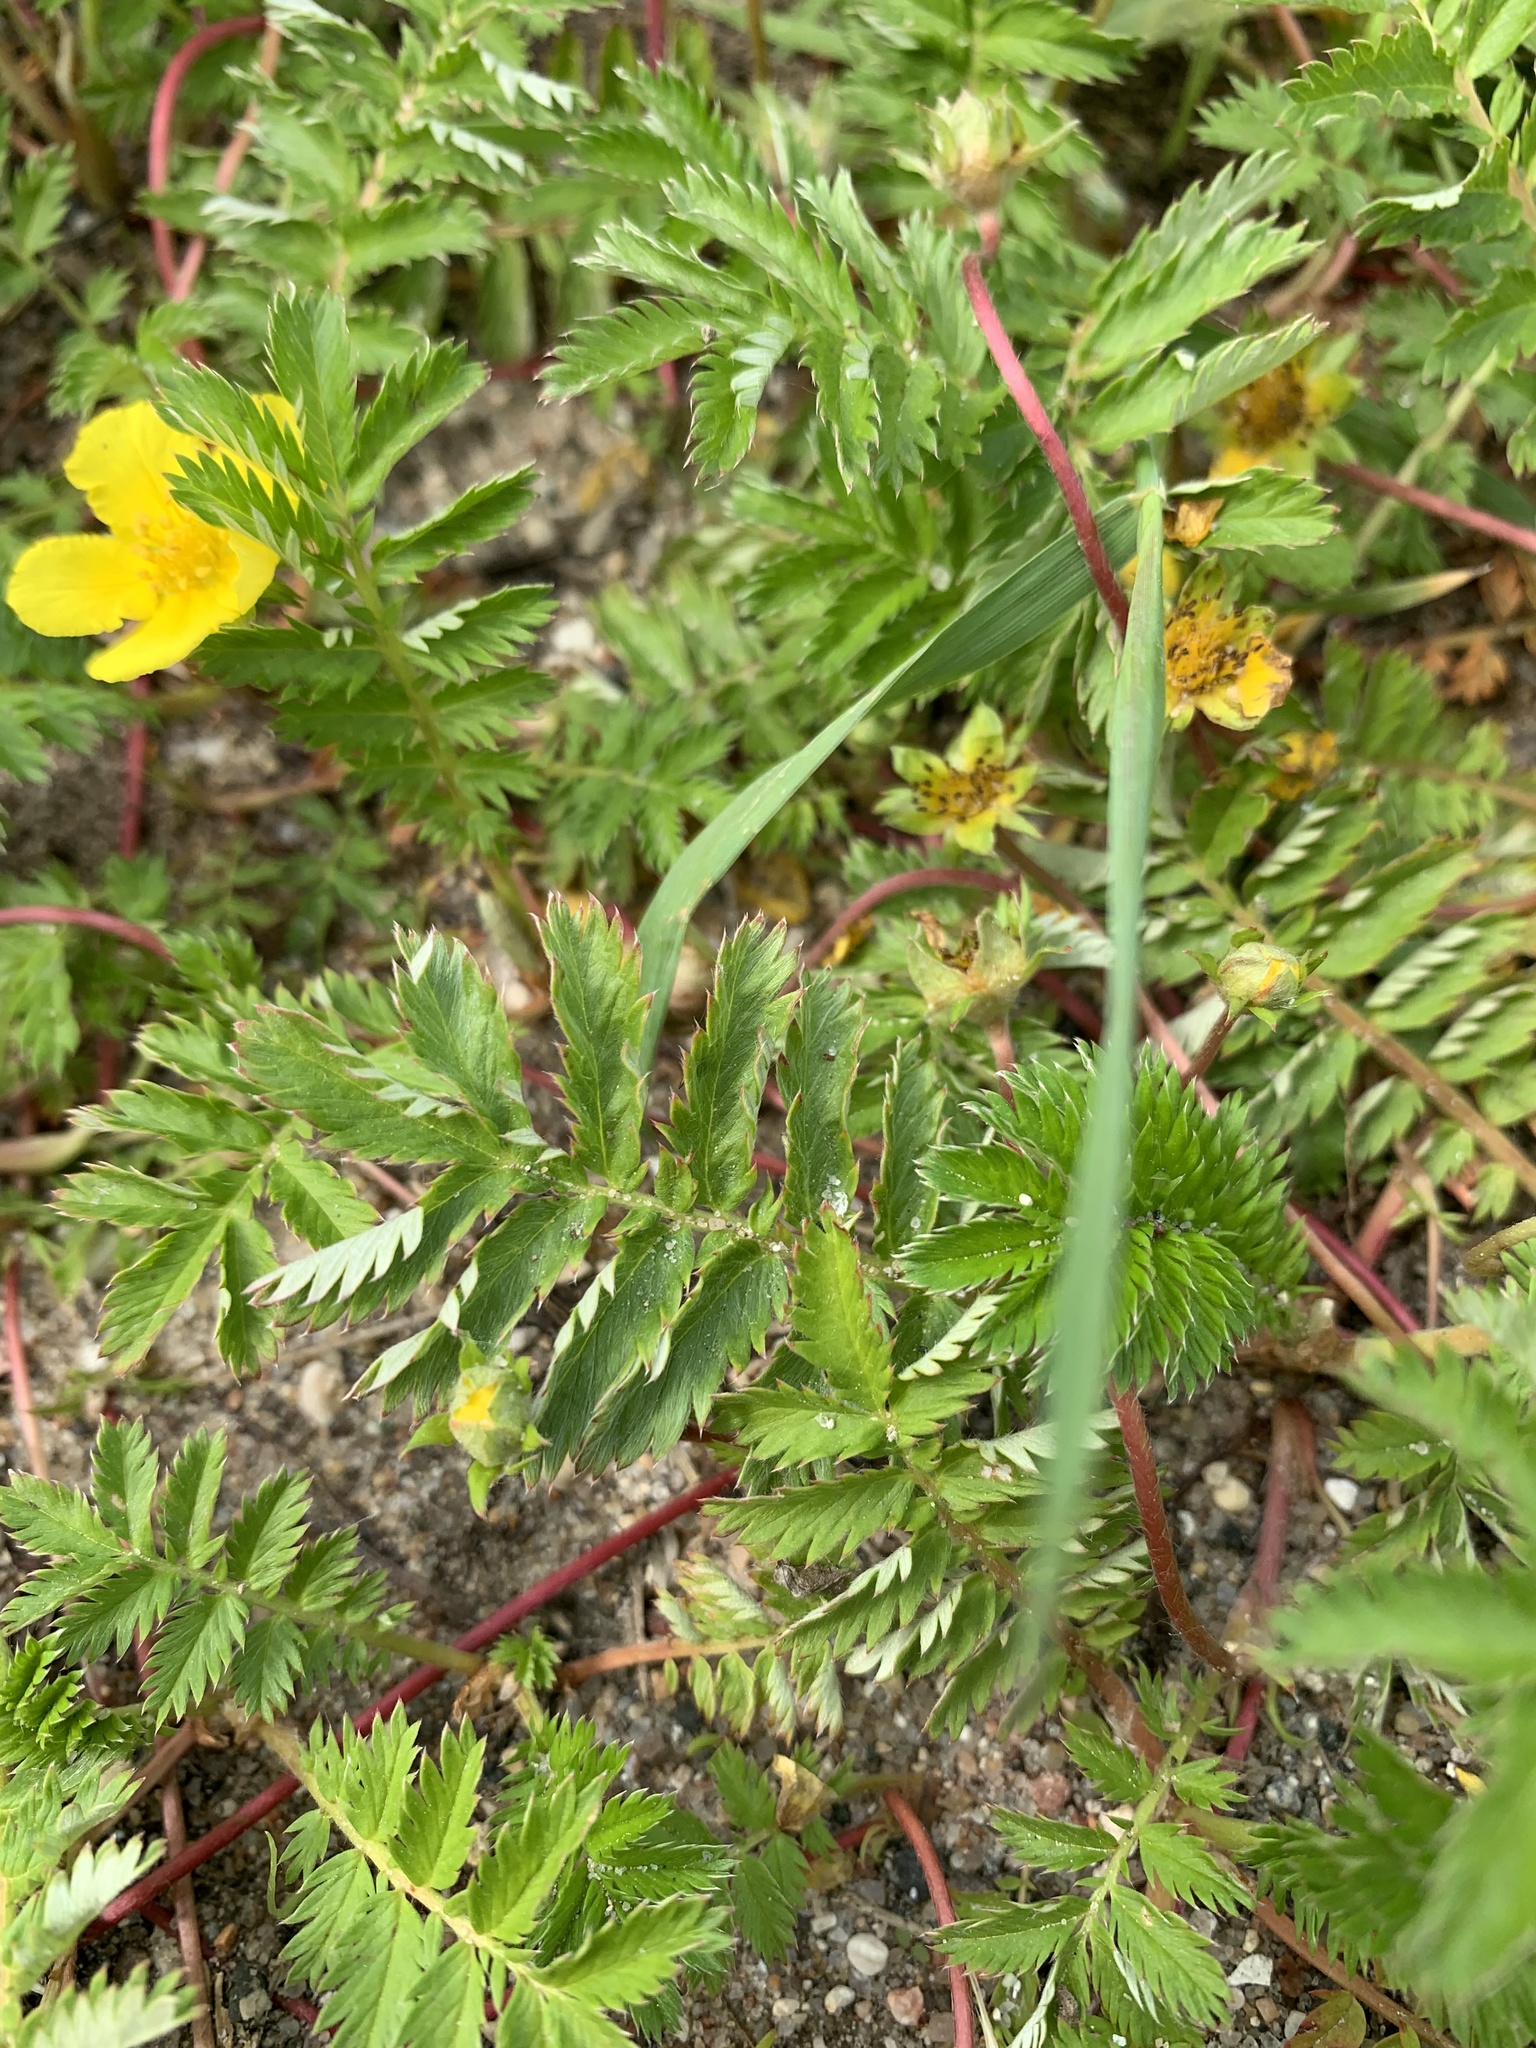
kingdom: Plantae
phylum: Tracheophyta
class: Magnoliopsida
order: Rosales
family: Rosaceae
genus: Argentina
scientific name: Argentina anserina
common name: Common silverweed
